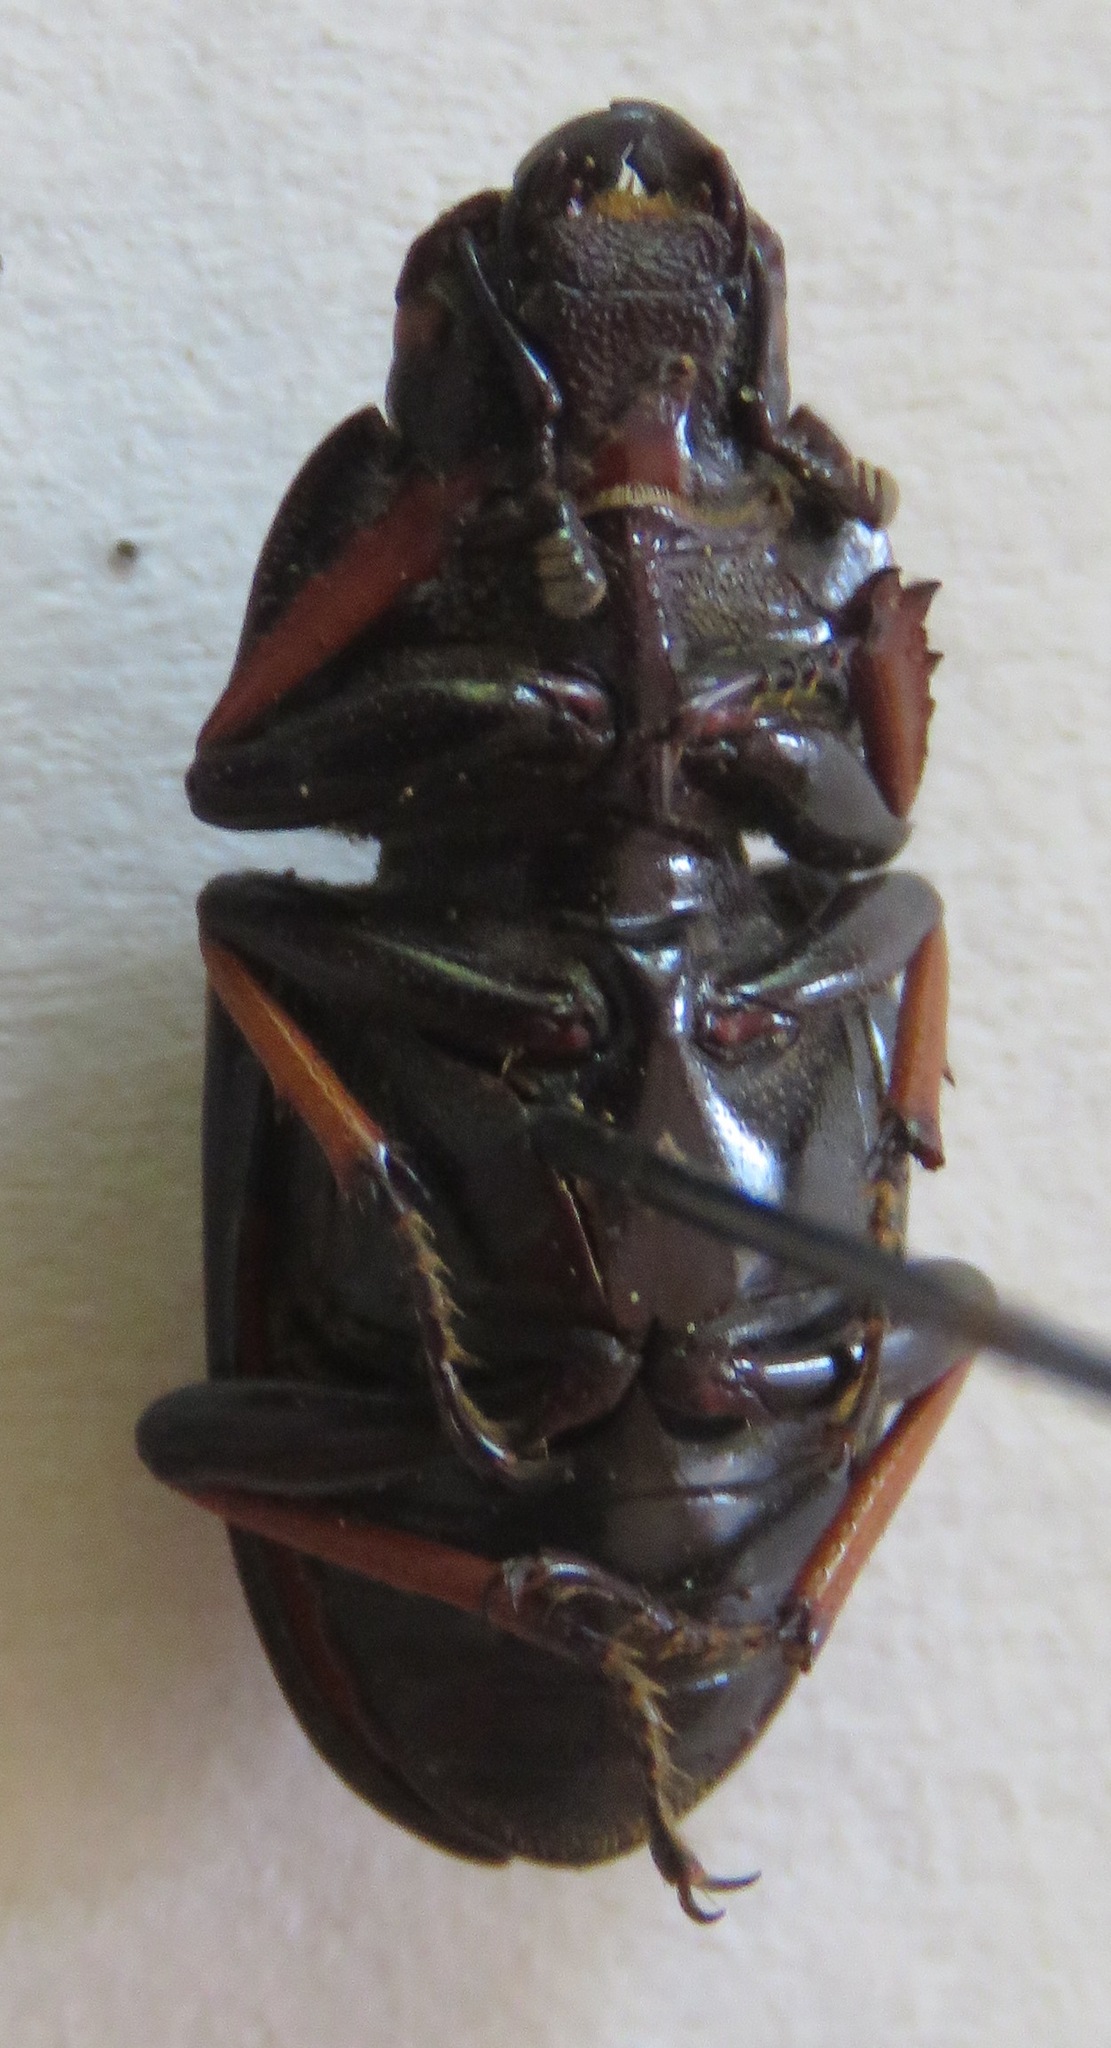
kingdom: Animalia
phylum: Arthropoda
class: Insecta
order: Coleoptera
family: Lucanidae
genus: Leptinopterus
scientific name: Leptinopterus tibialis
